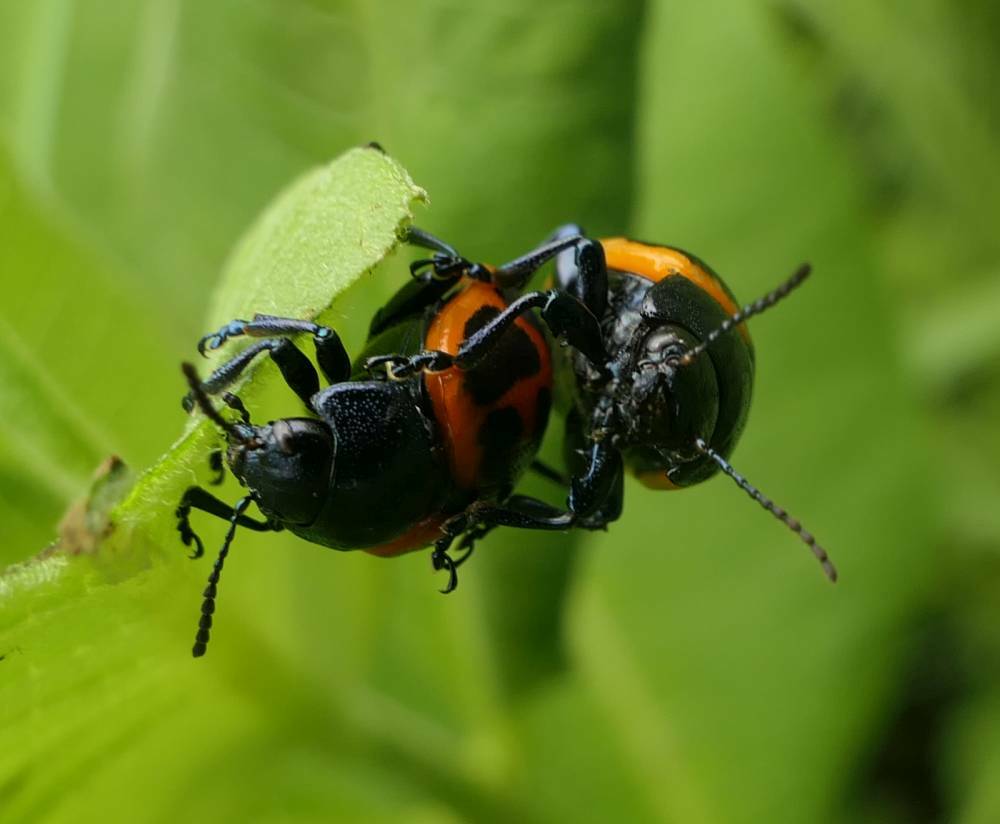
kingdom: Animalia
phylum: Arthropoda
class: Insecta
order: Coleoptera
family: Chrysomelidae
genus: Labidomera
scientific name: Labidomera clivicollis
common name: Swamp milkweed leaf beetle
